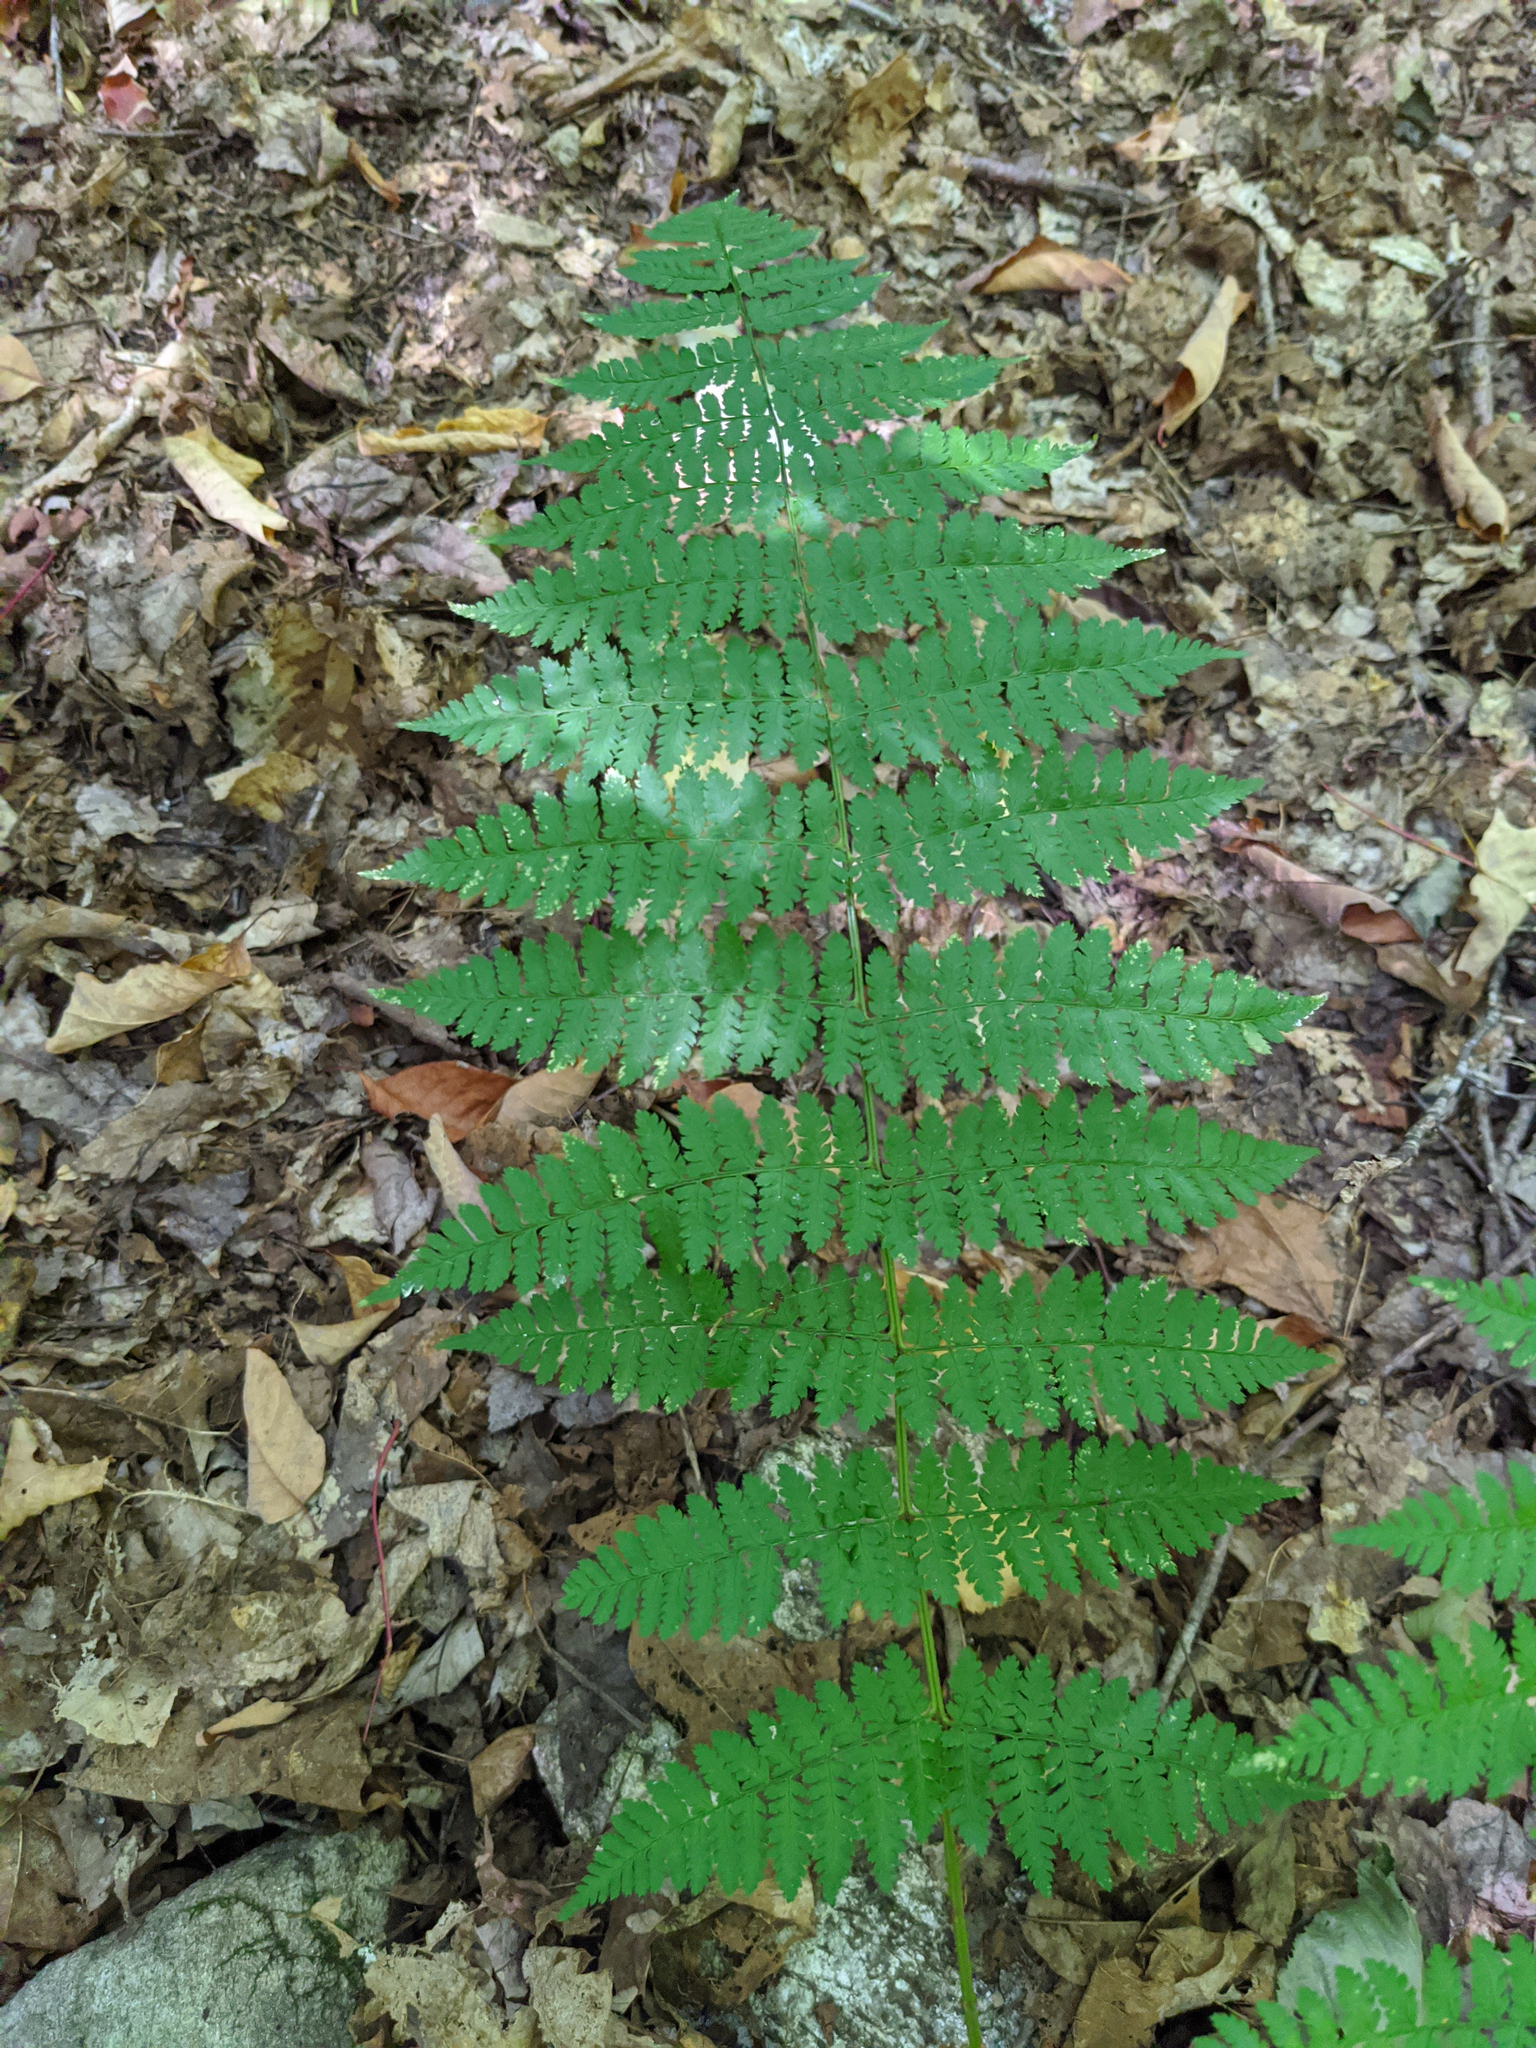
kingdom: Plantae
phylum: Tracheophyta
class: Polypodiopsida
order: Polypodiales
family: Dryopteridaceae
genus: Dryopteris
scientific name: Dryopteris intermedia
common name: Evergreen wood fern
